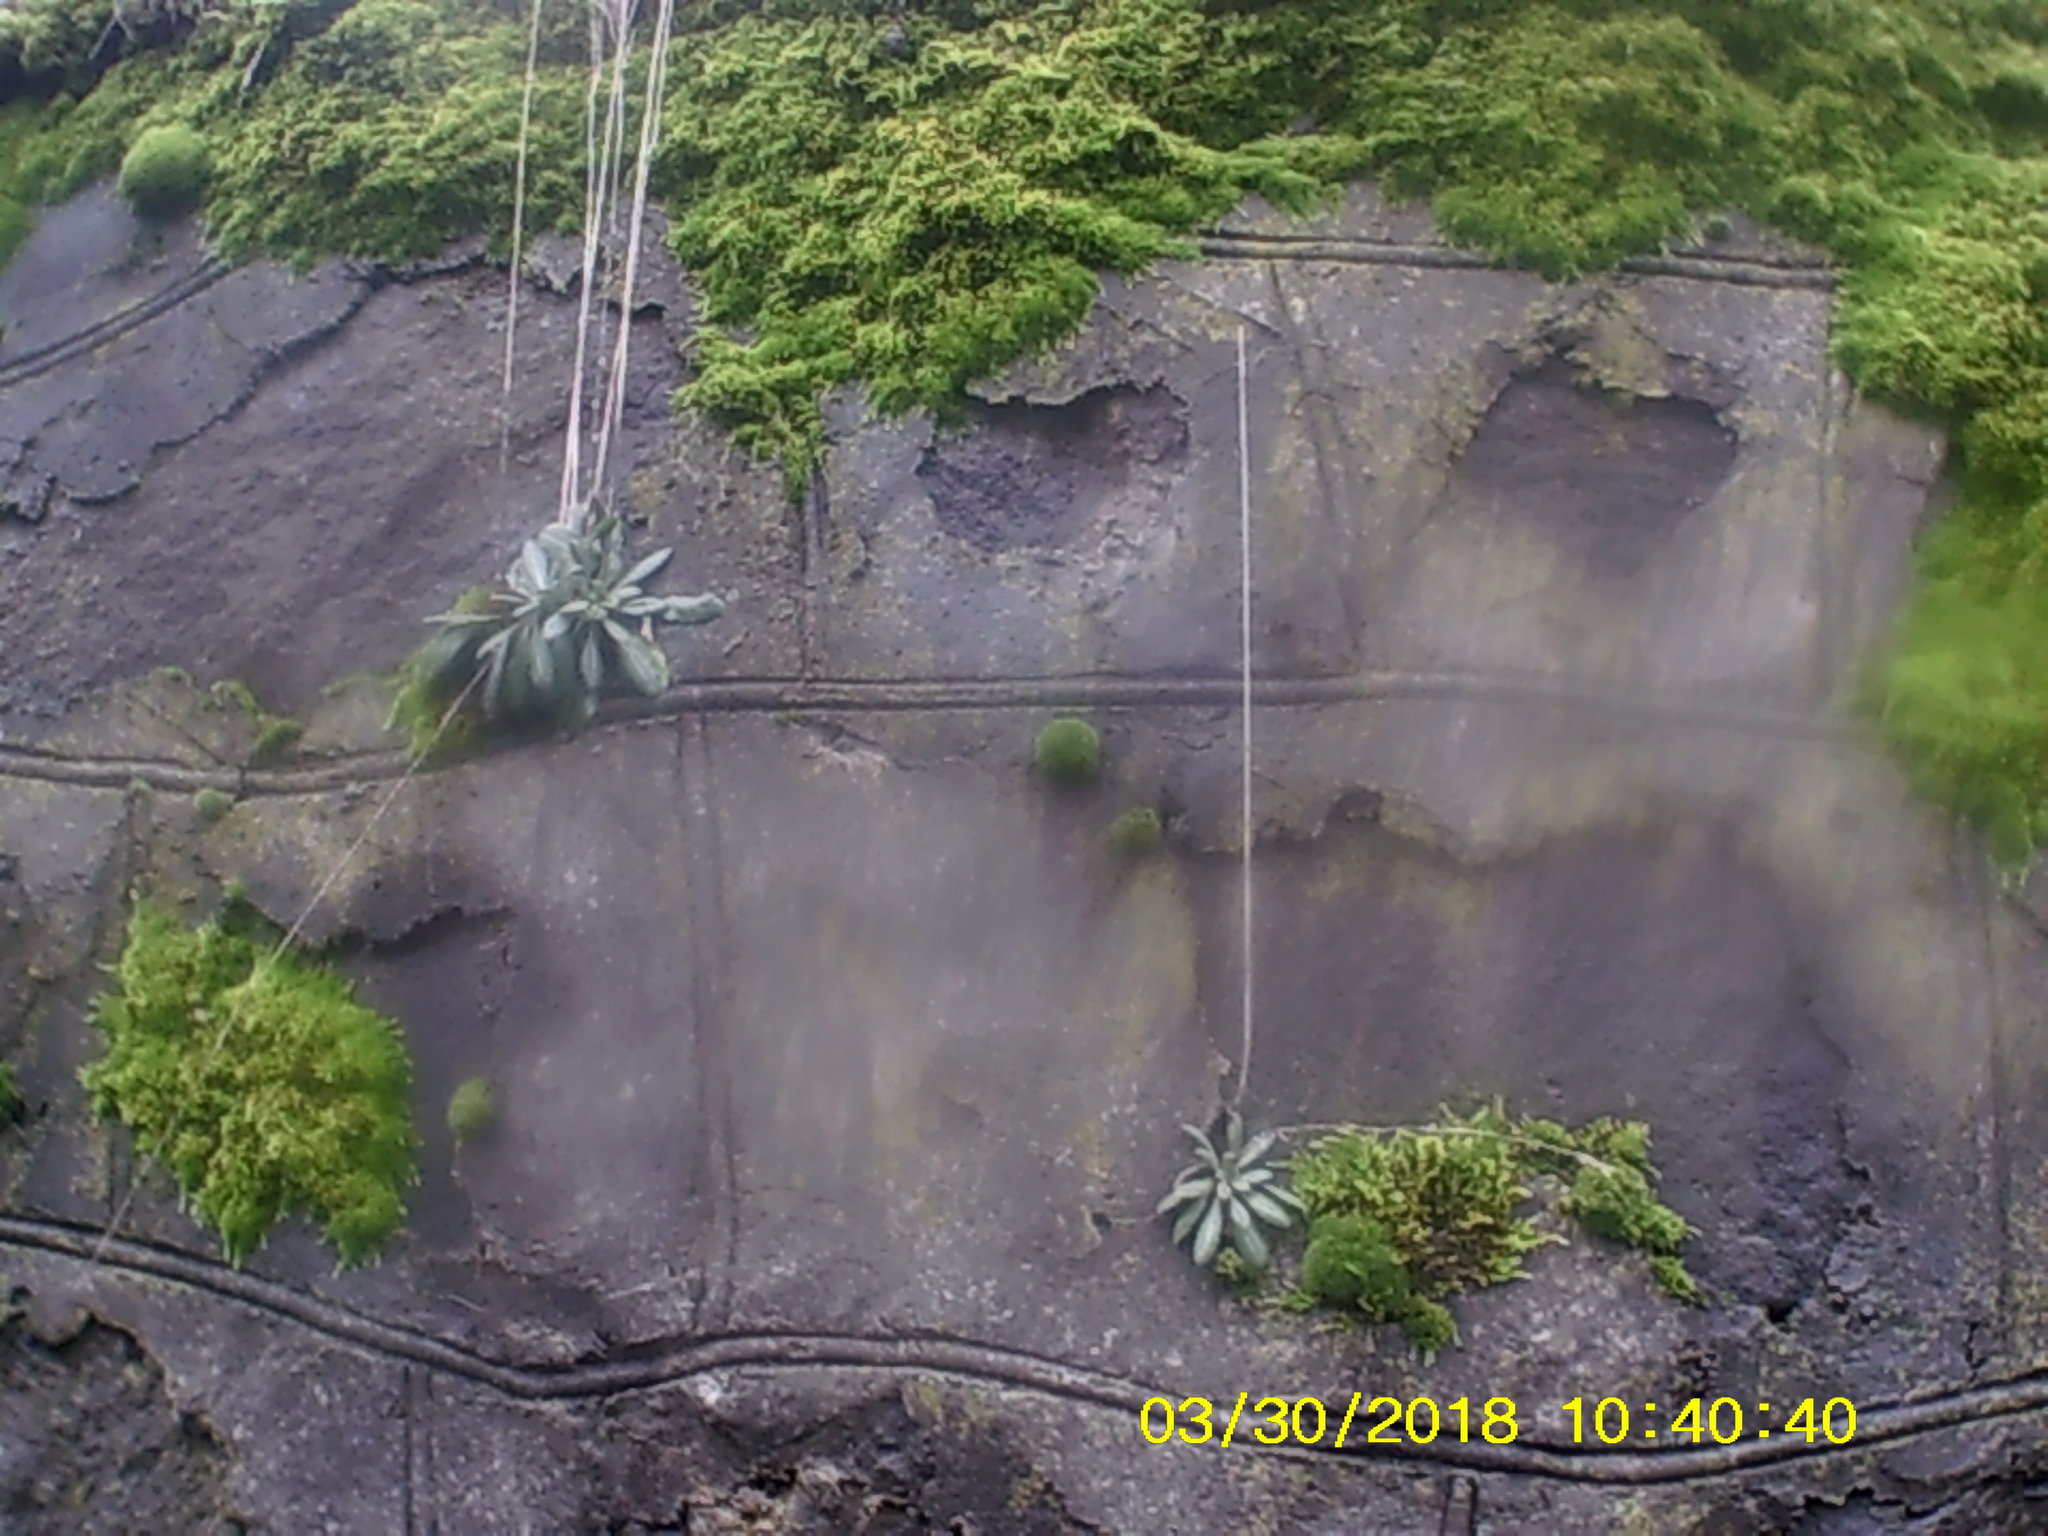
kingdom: Plantae
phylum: Tracheophyta
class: Magnoliopsida
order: Brassicales
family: Brassicaceae
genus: Arabis
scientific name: Arabis sagittata
